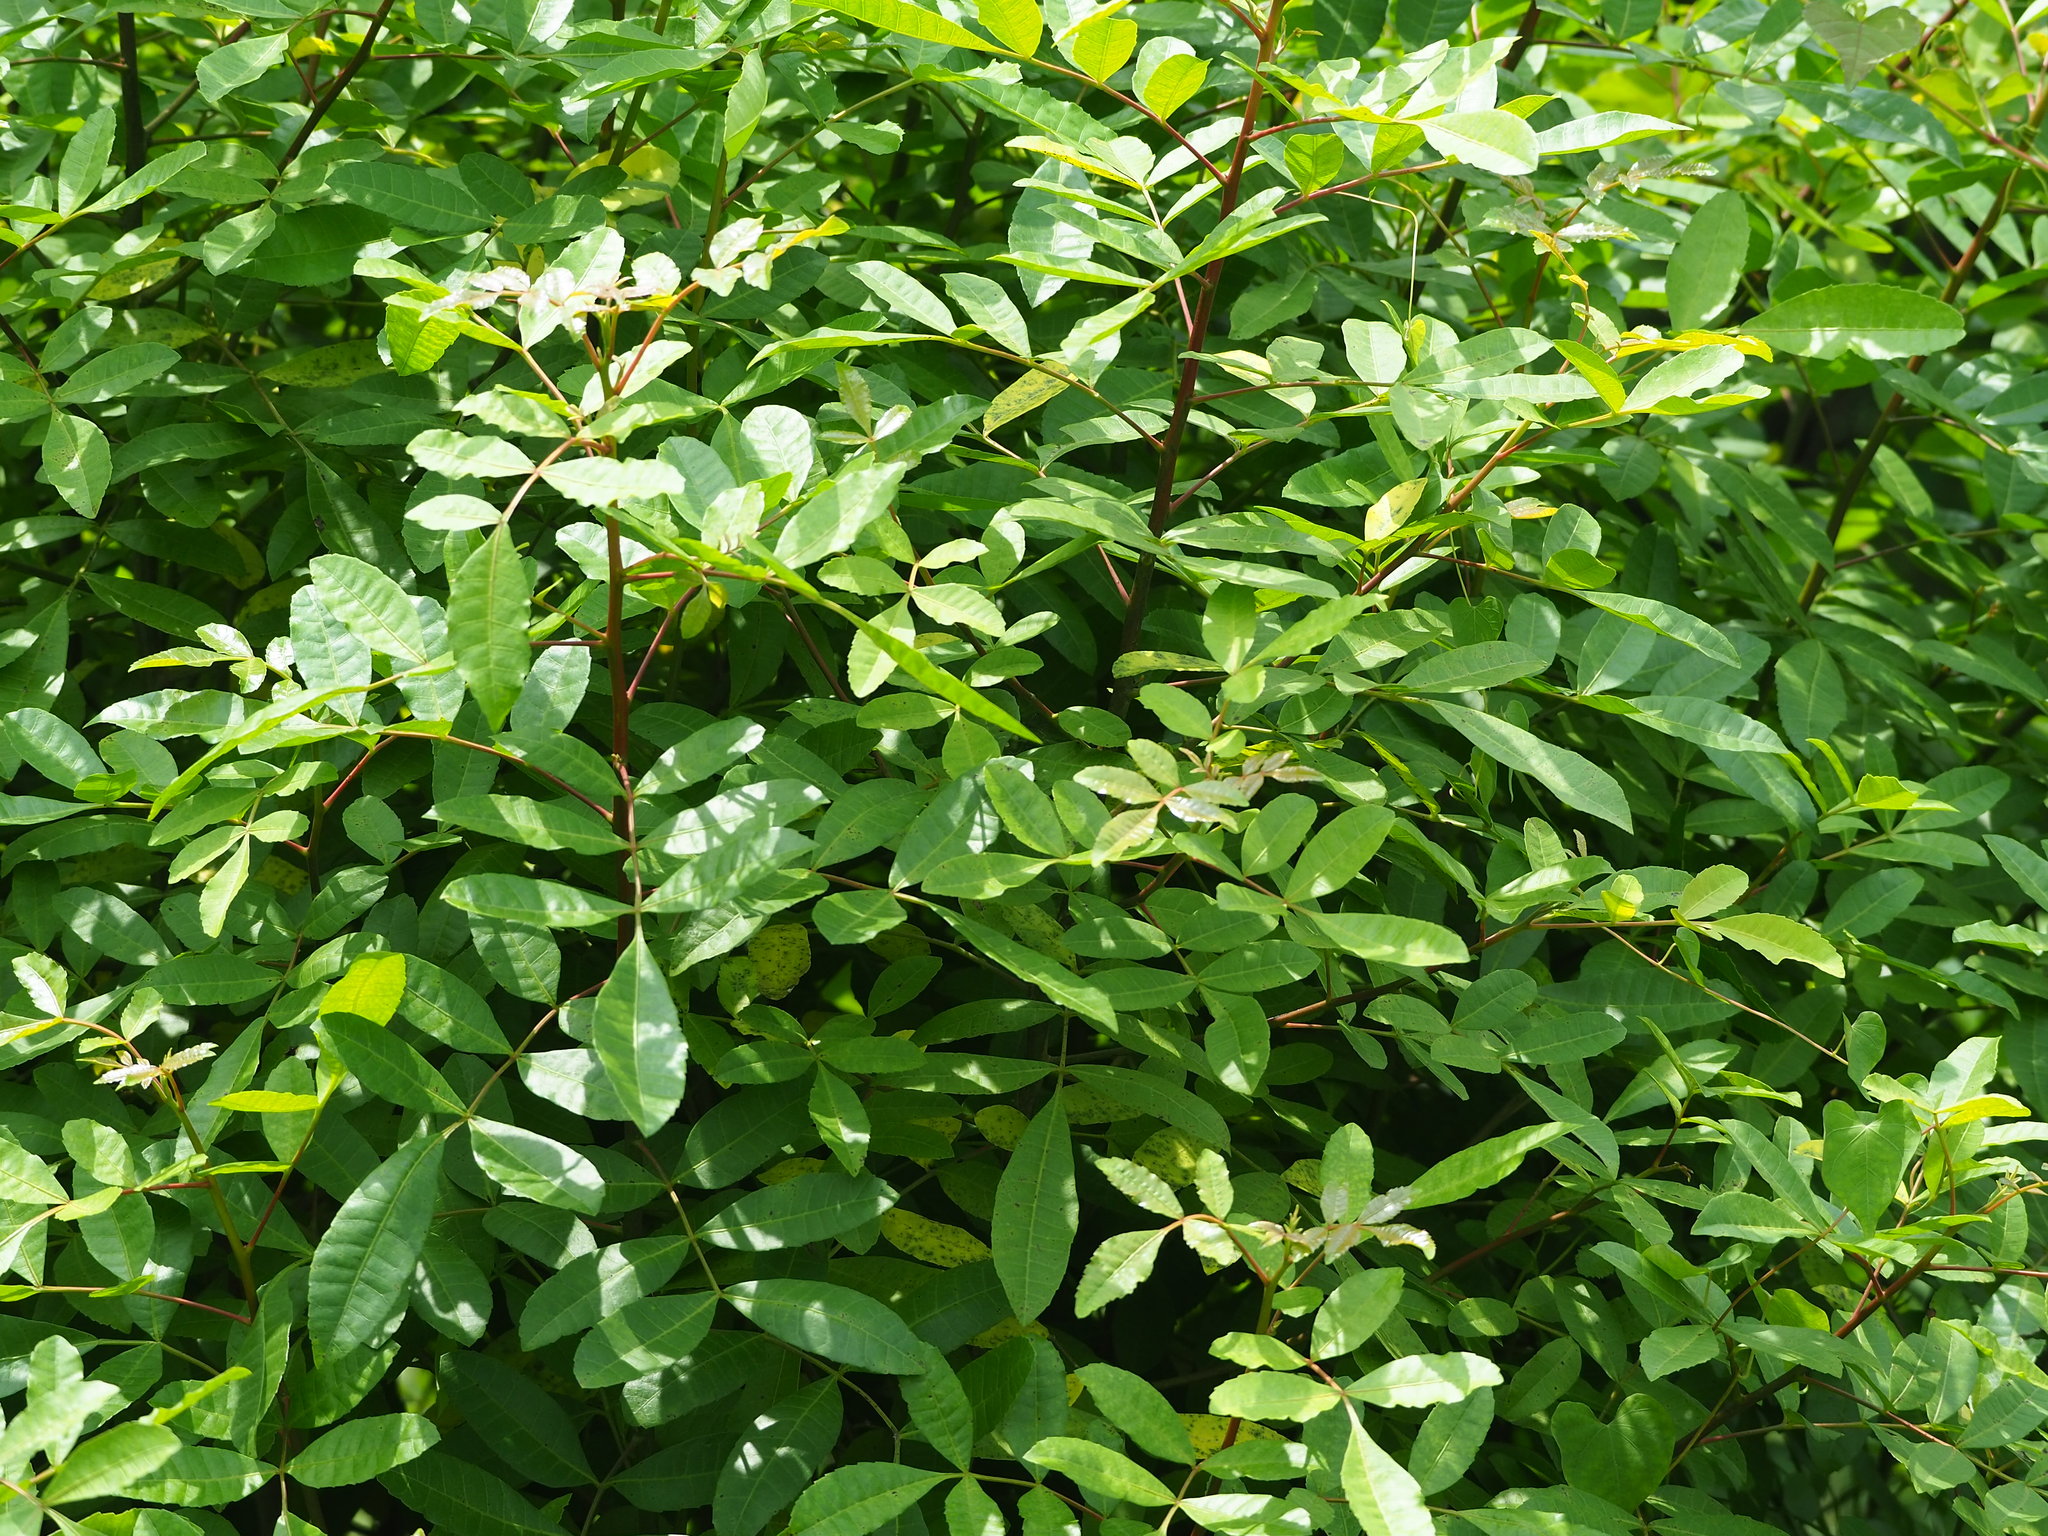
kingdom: Plantae
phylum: Tracheophyta
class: Magnoliopsida
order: Sapindales
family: Anacardiaceae
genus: Schinus
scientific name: Schinus terebinthifolia
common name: Brazilian peppertree
